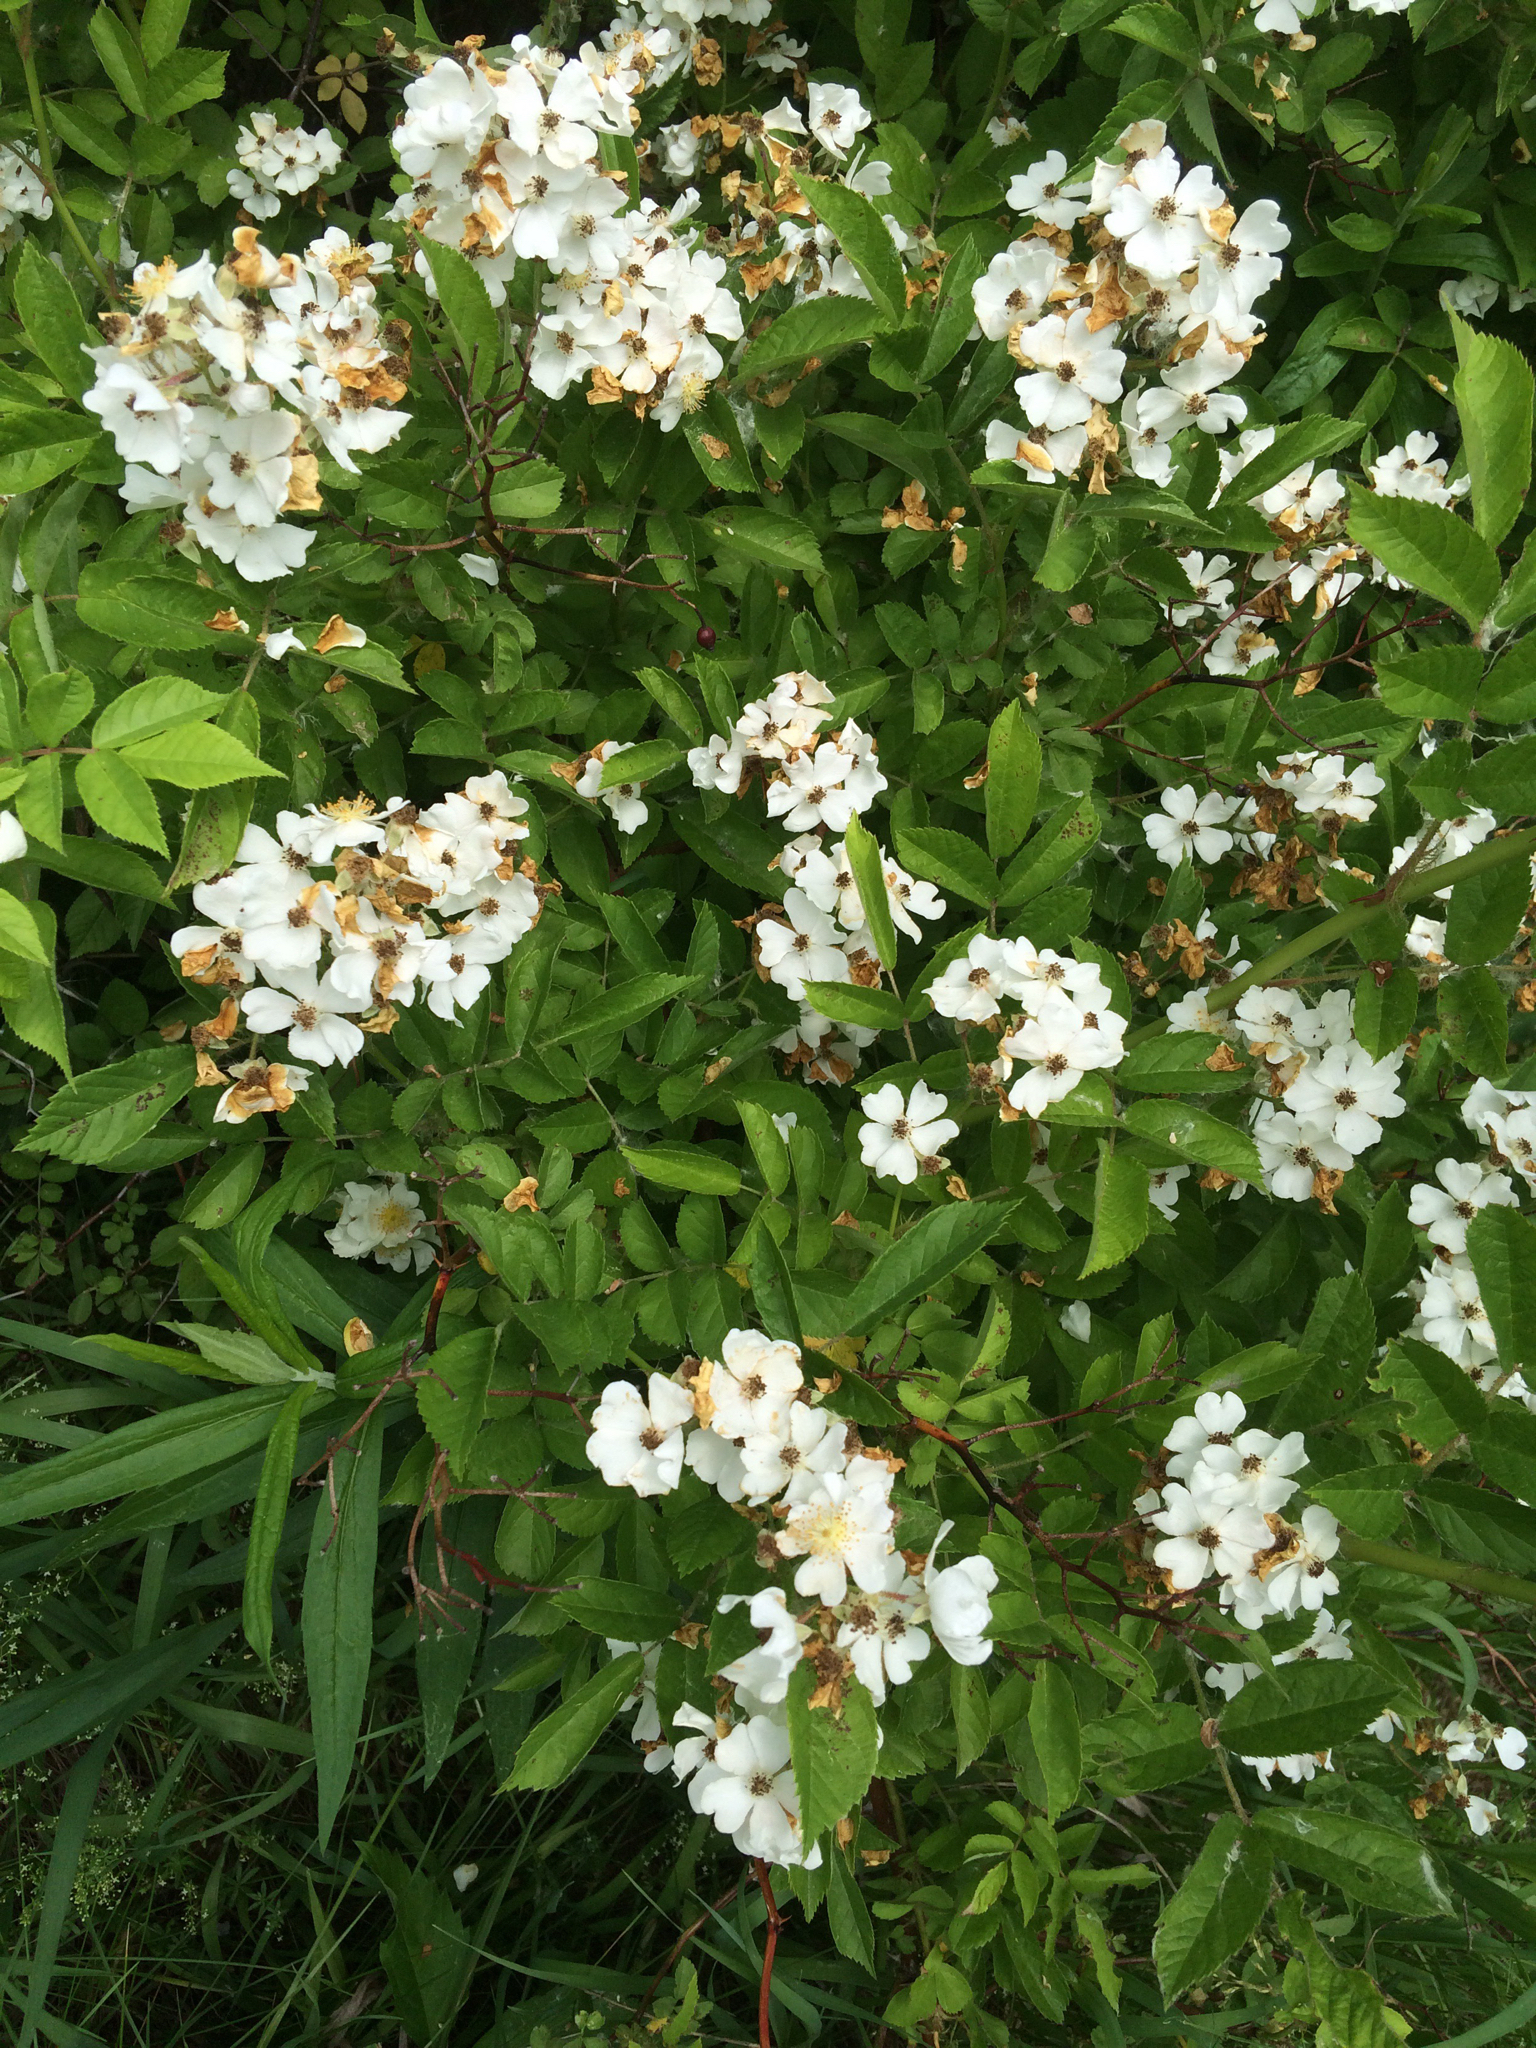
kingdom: Plantae
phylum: Tracheophyta
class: Magnoliopsida
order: Rosales
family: Rosaceae
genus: Rosa
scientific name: Rosa multiflora
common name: Multiflora rose
